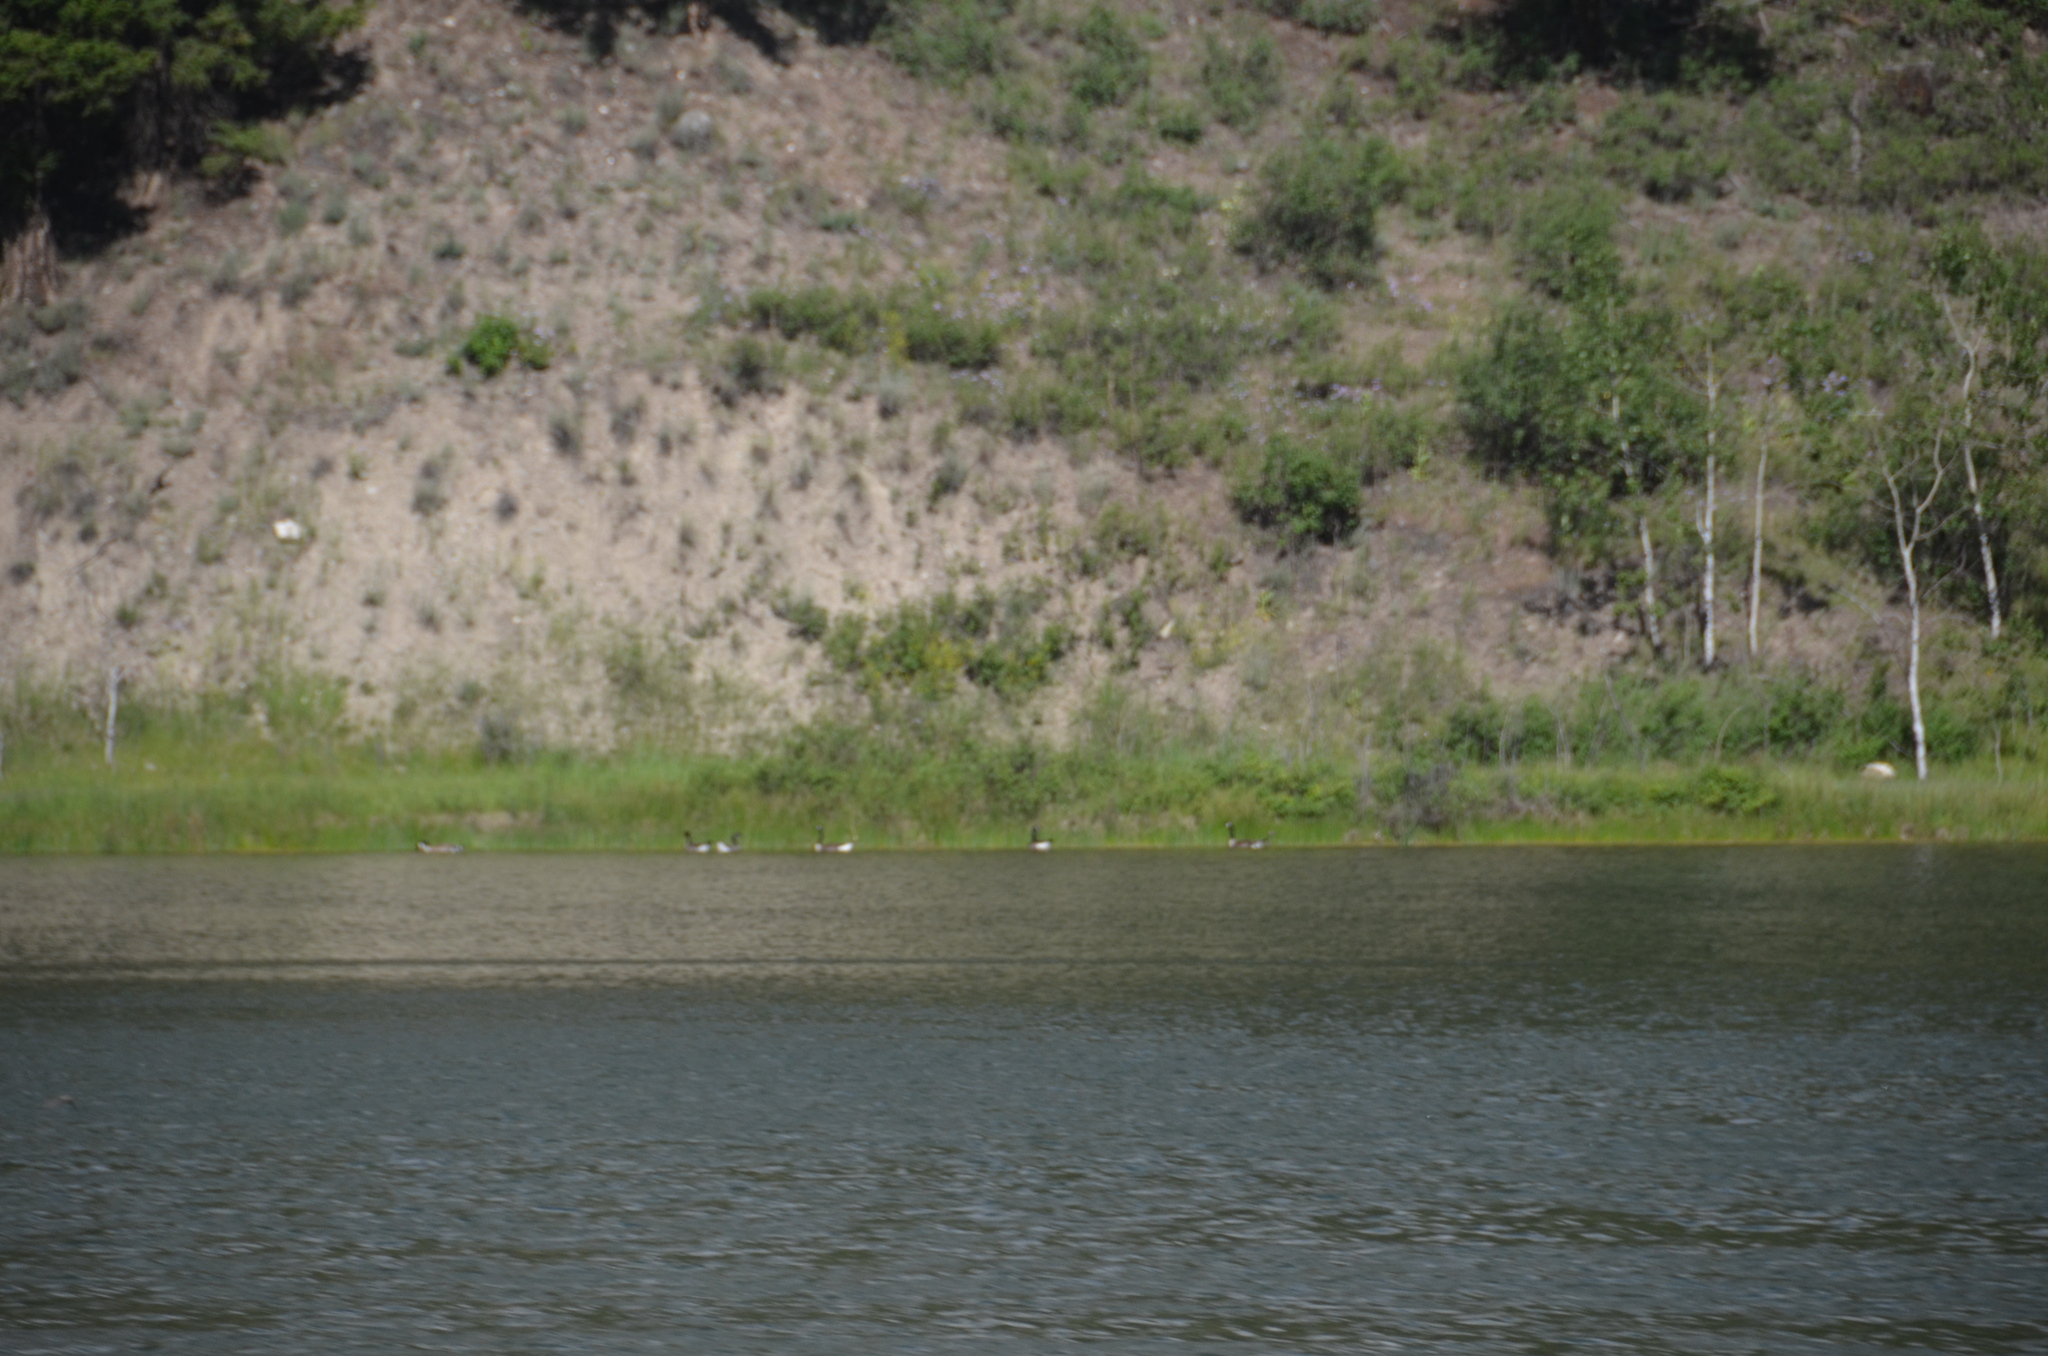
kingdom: Animalia
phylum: Chordata
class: Aves
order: Anseriformes
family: Anatidae
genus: Branta
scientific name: Branta canadensis
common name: Canada goose
